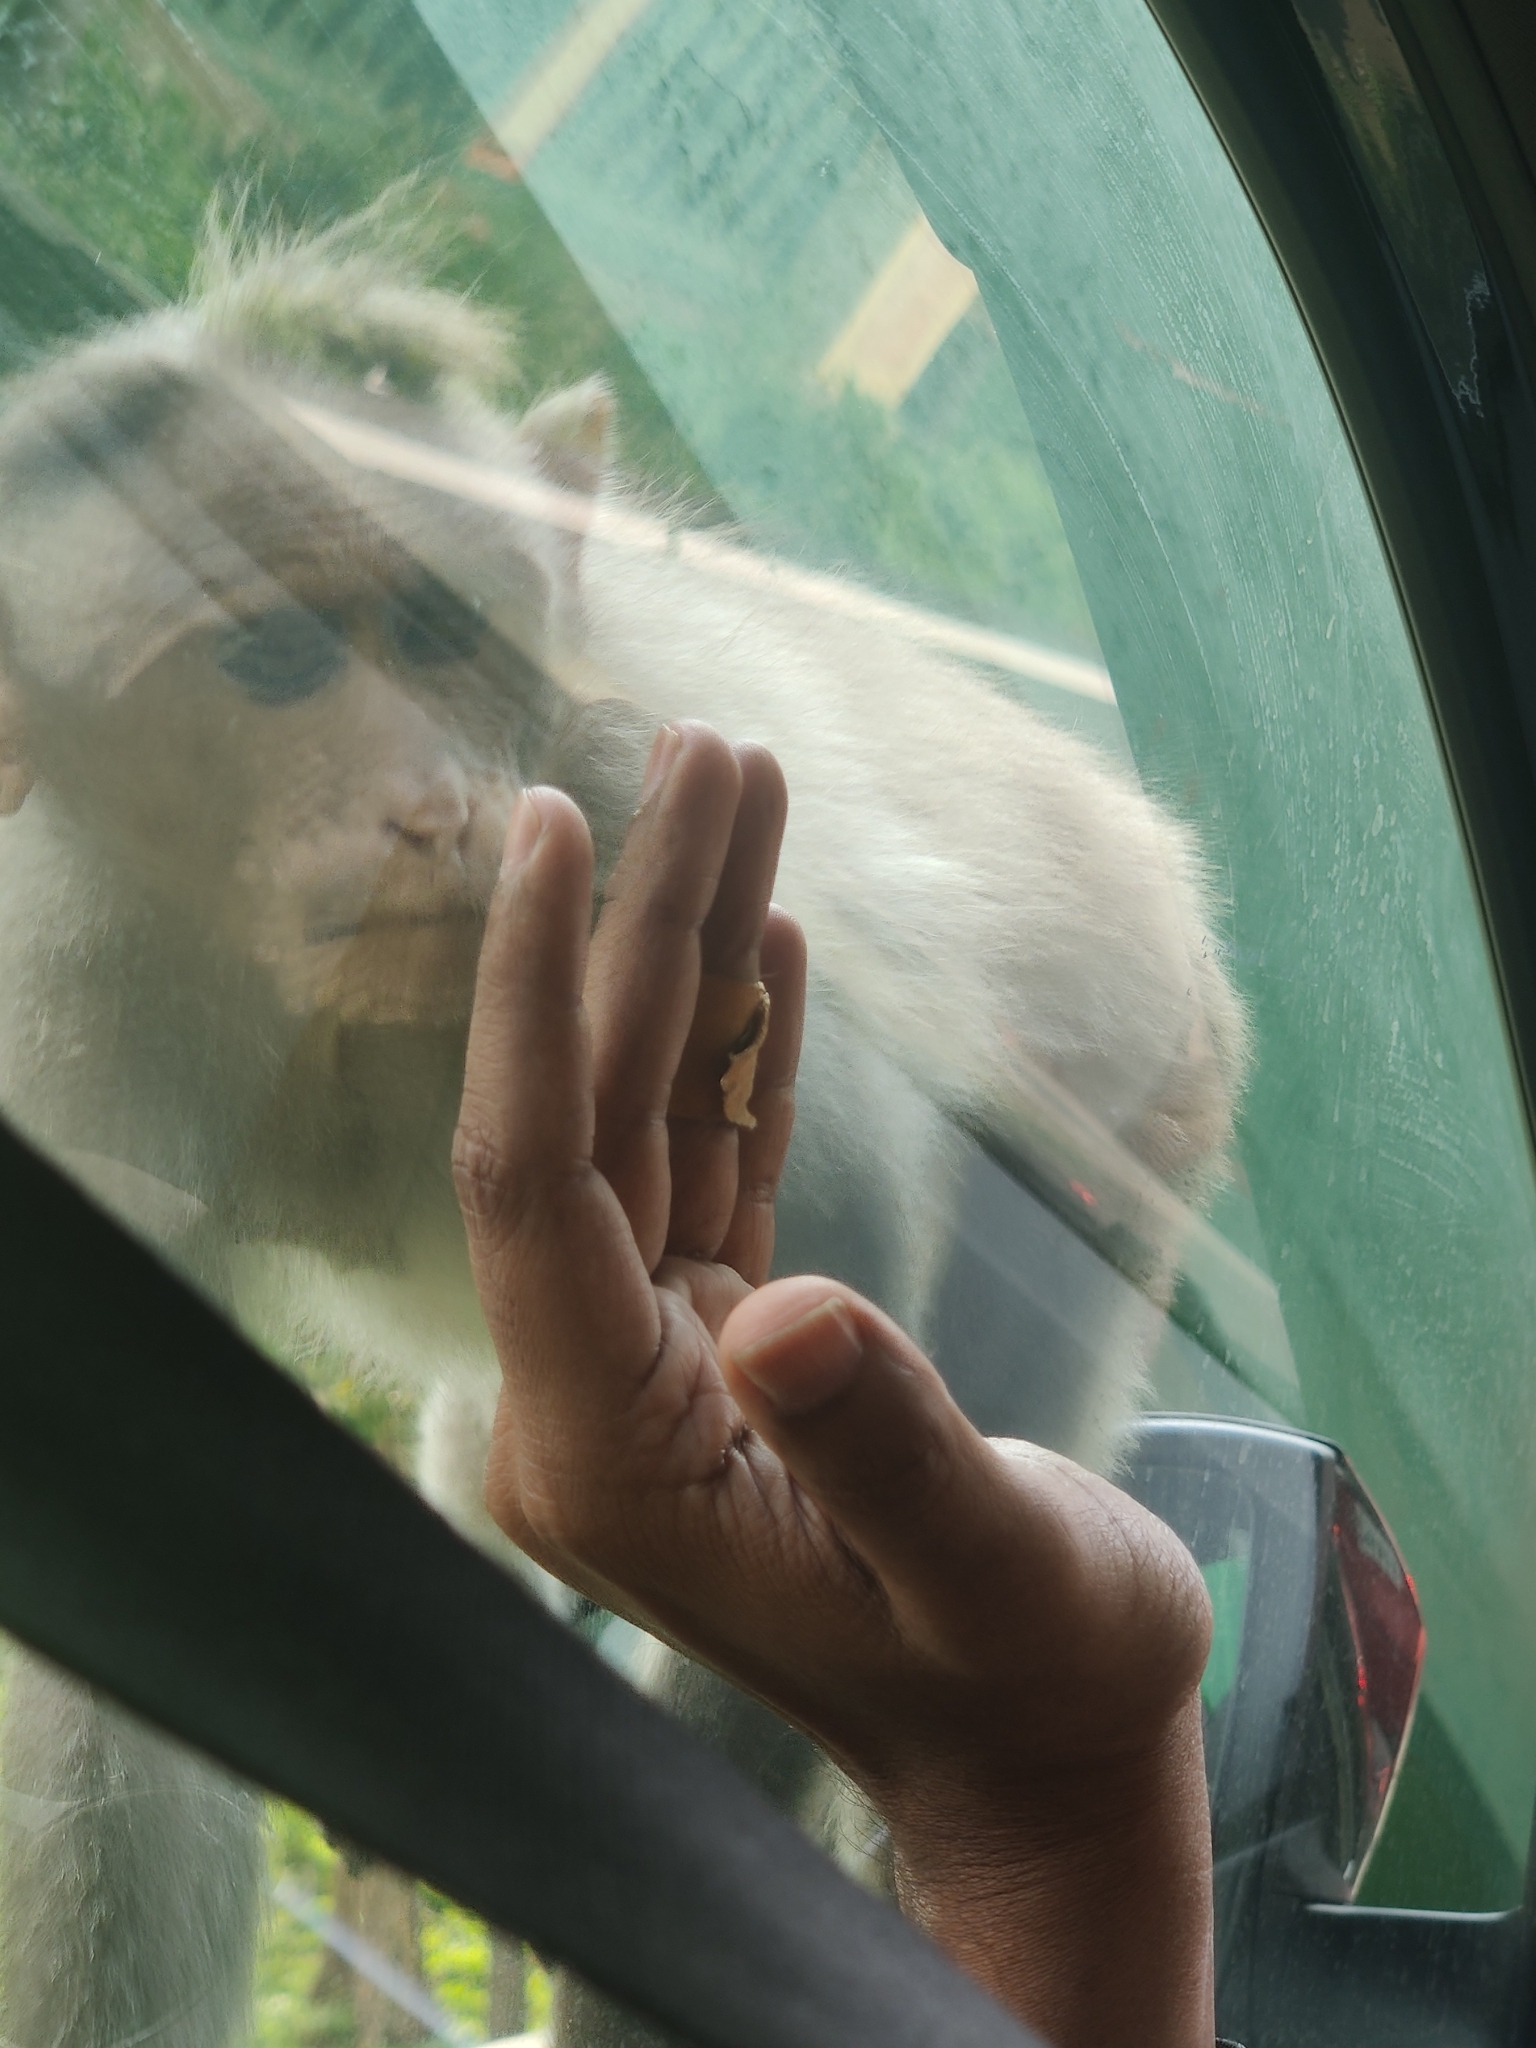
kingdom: Animalia
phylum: Chordata
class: Mammalia
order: Primates
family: Cercopithecidae
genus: Macaca
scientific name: Macaca radiata
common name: Bonnet macaque
